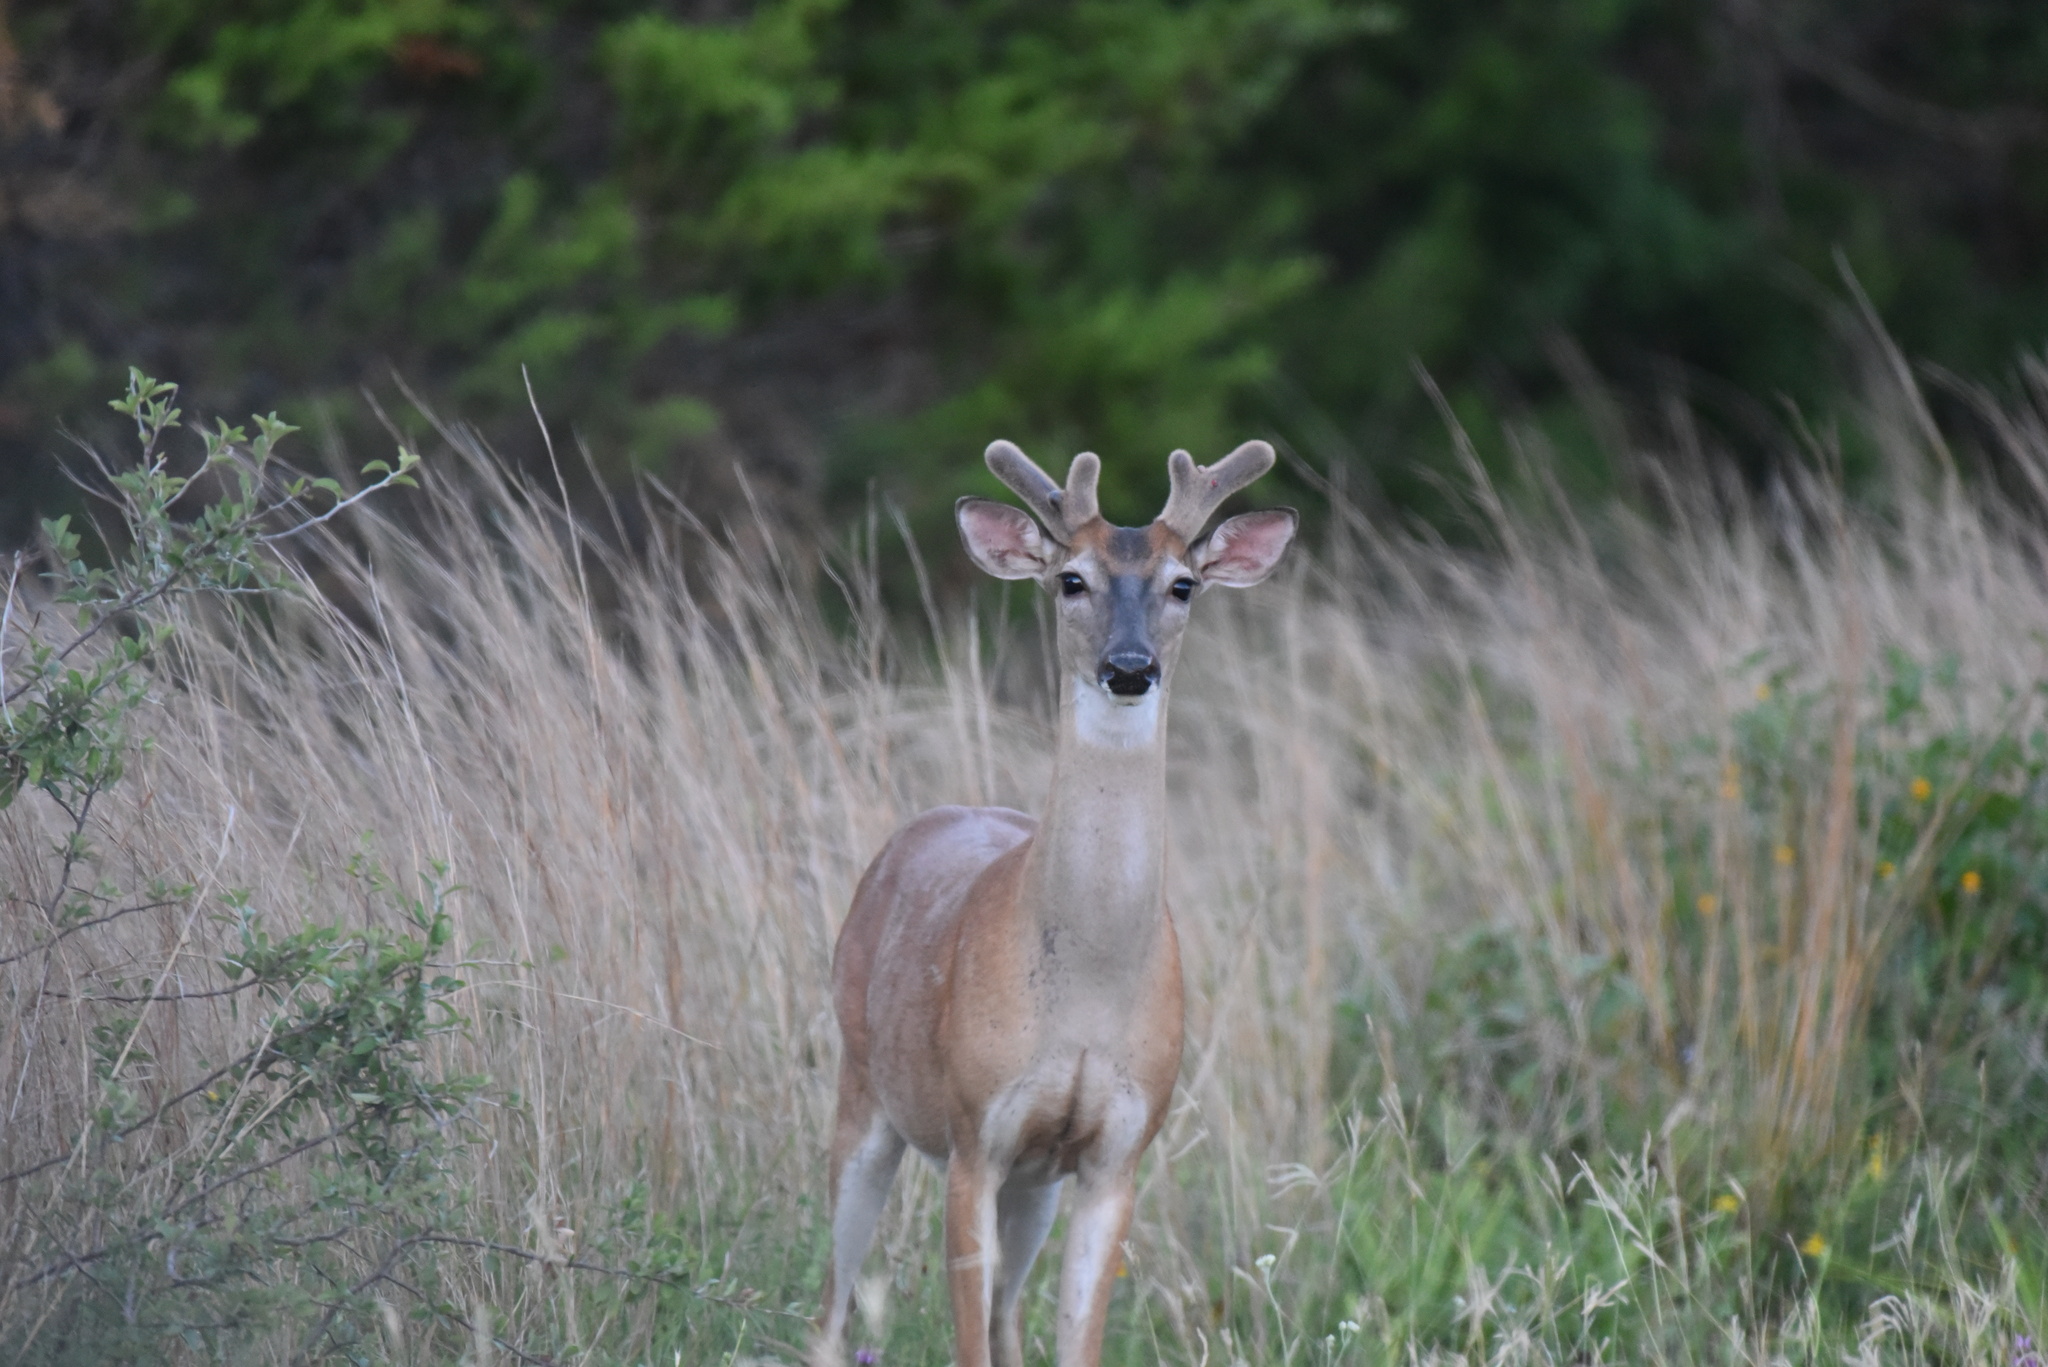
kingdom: Animalia
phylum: Chordata
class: Mammalia
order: Artiodactyla
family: Cervidae
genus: Odocoileus
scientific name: Odocoileus virginianus
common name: White-tailed deer
